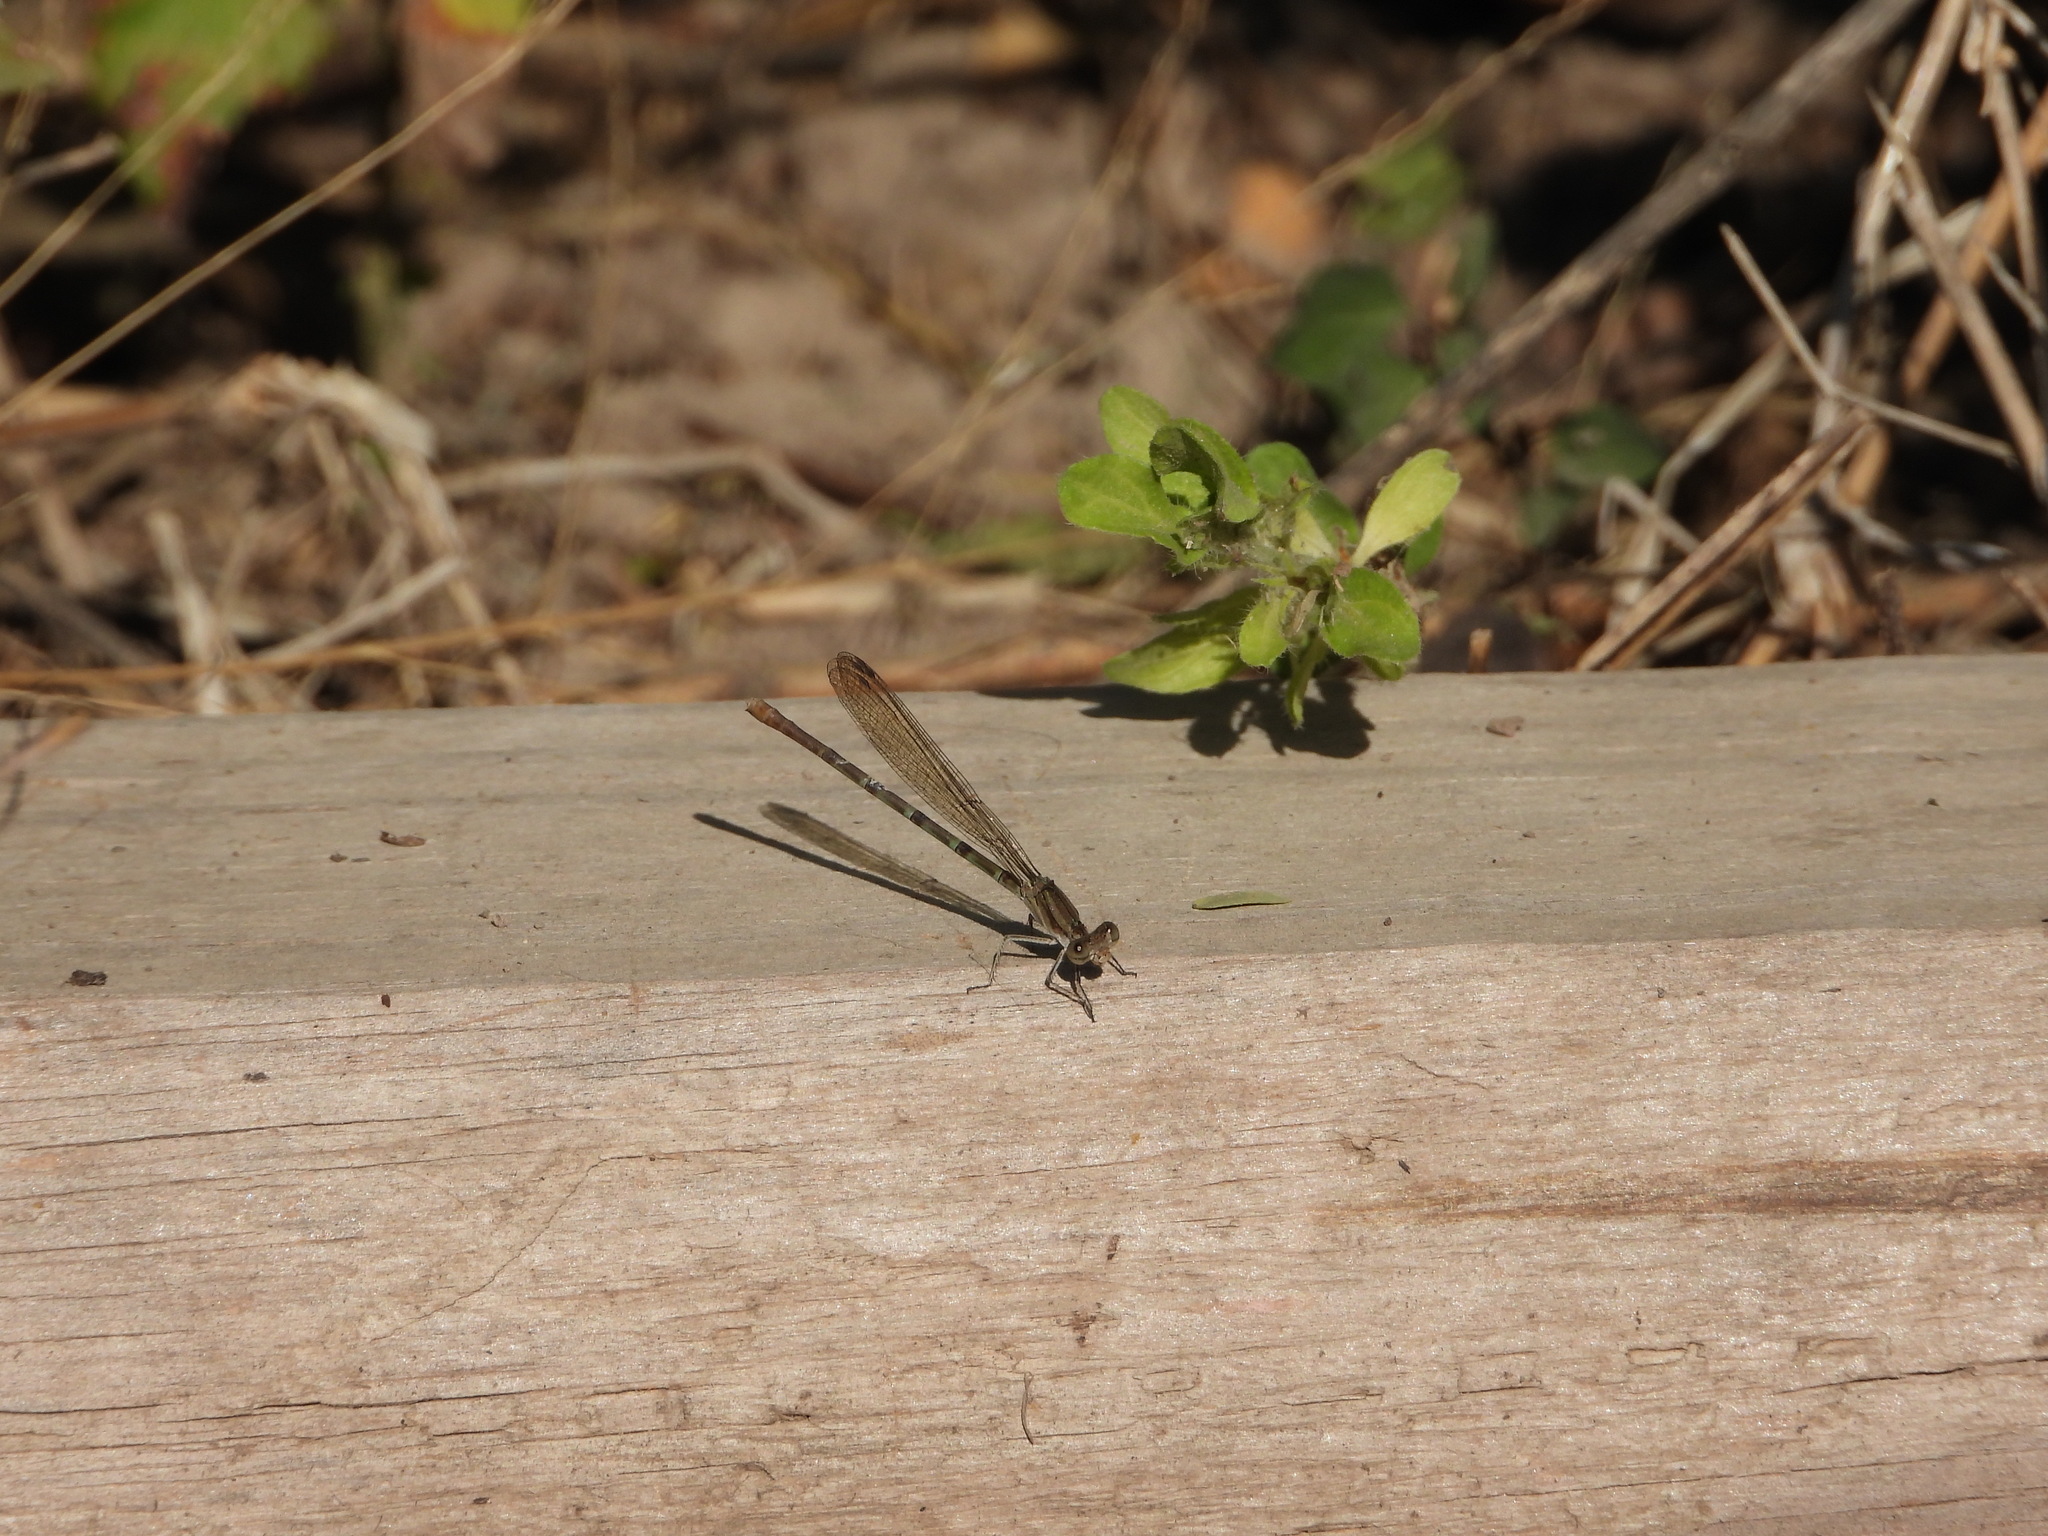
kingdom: Animalia
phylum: Arthropoda
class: Insecta
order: Odonata
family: Coenagrionidae
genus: Argia
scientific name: Argia sedula
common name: Blue-ringed dancer
